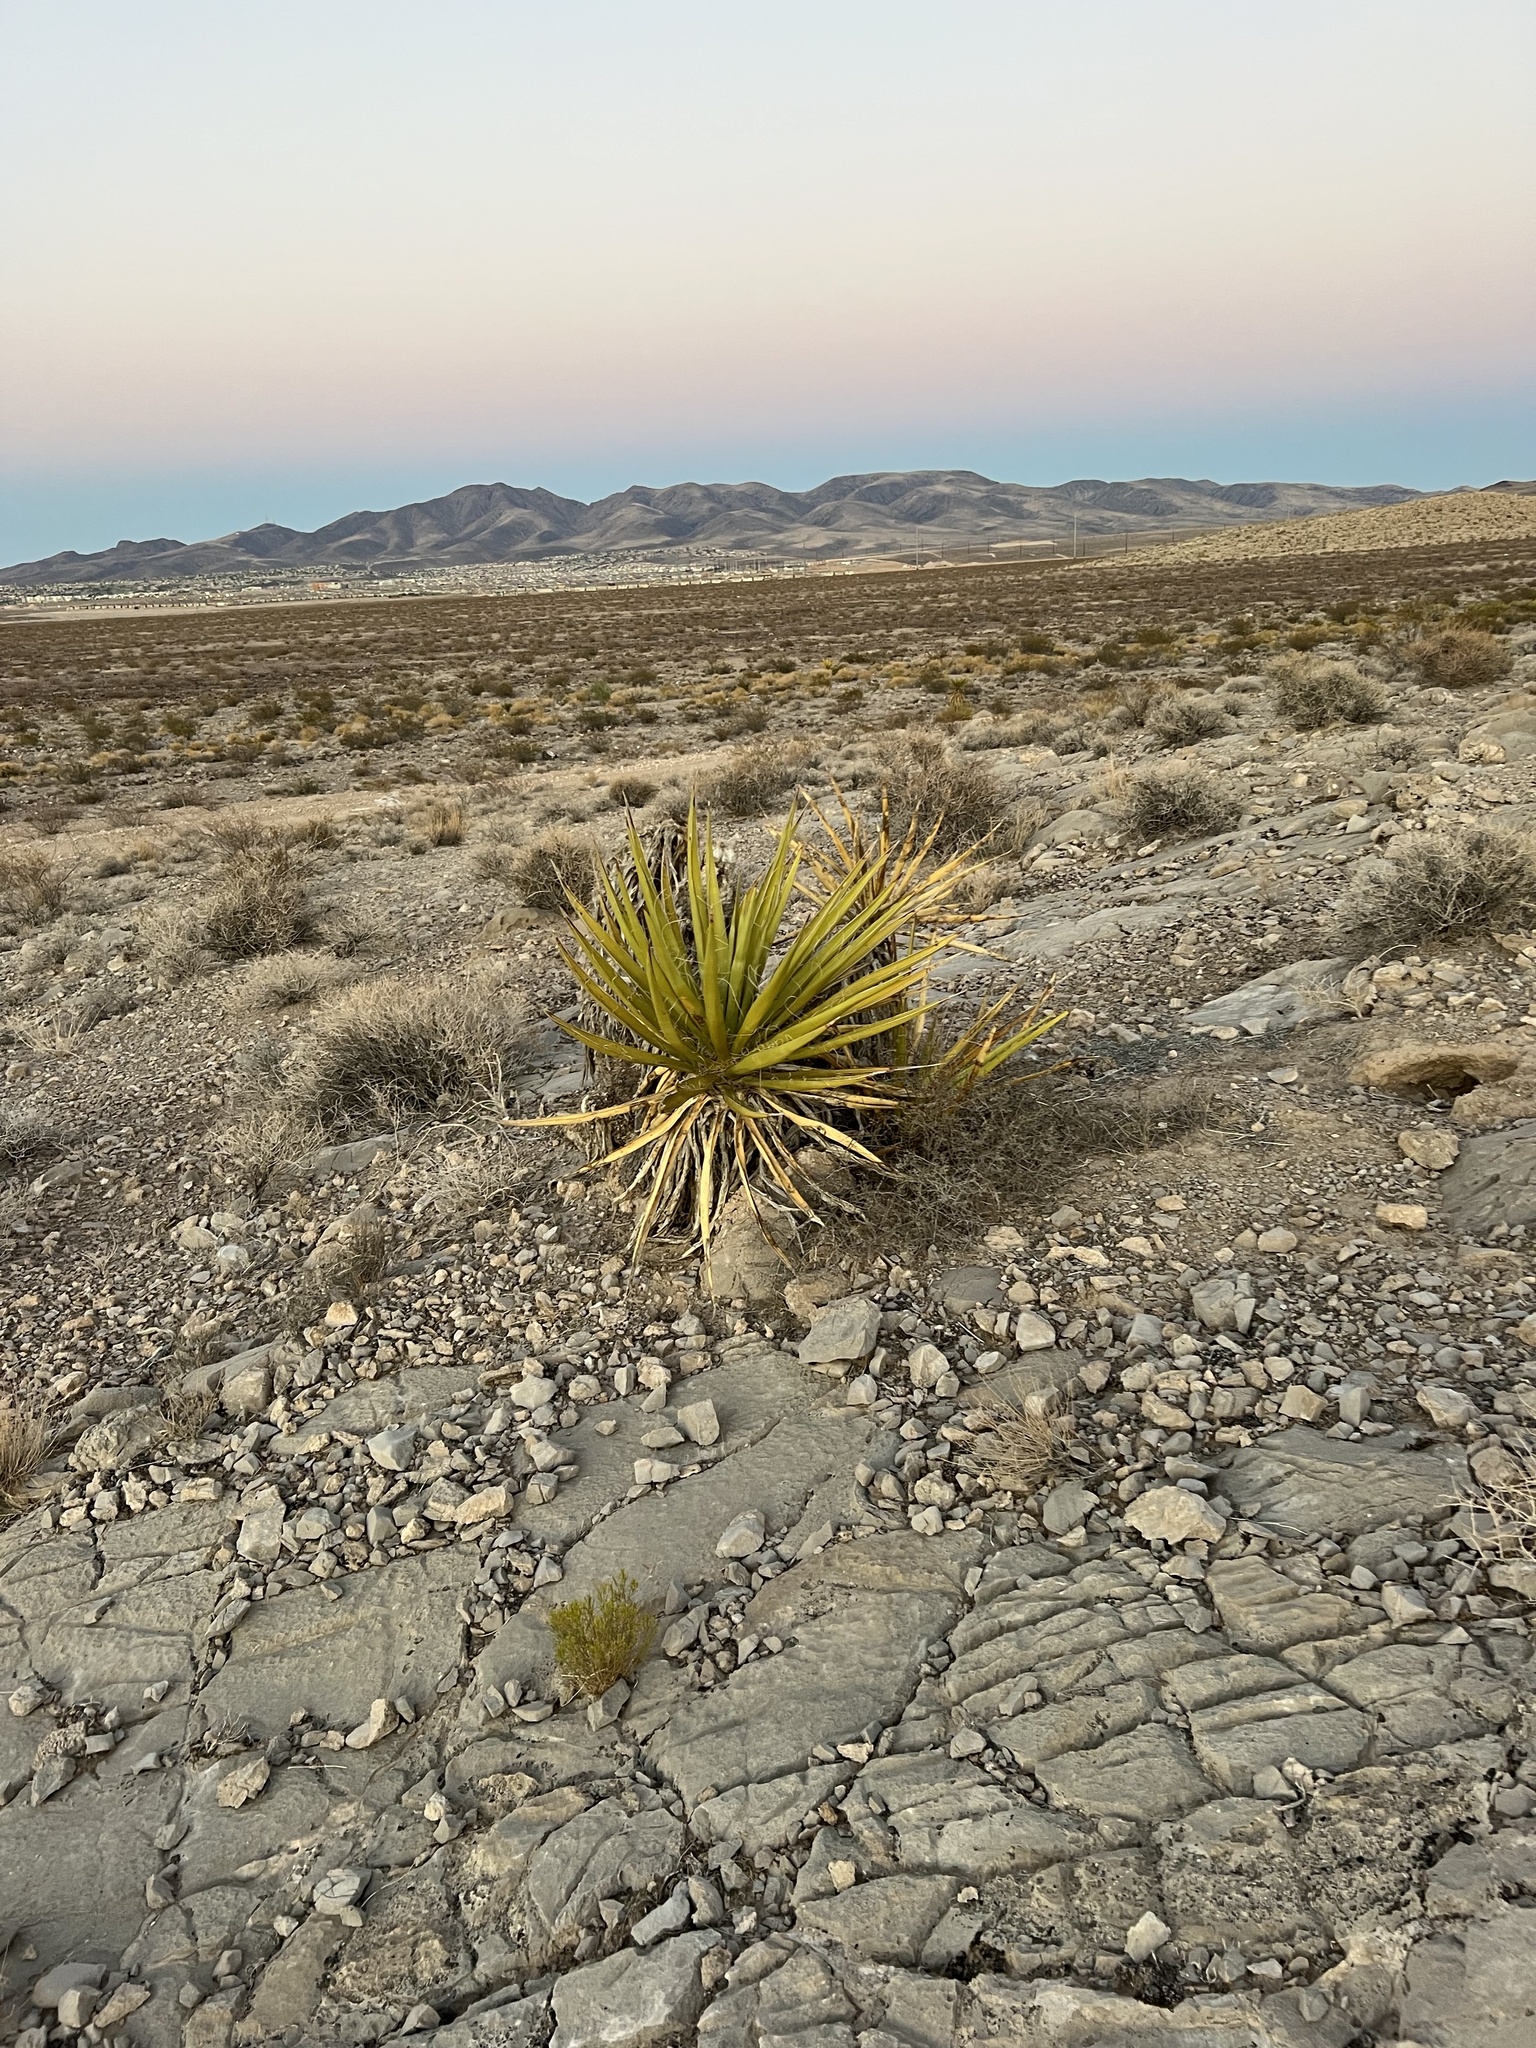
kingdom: Plantae
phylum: Tracheophyta
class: Liliopsida
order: Asparagales
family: Asparagaceae
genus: Yucca
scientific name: Yucca schidigera
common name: Mojave yucca
